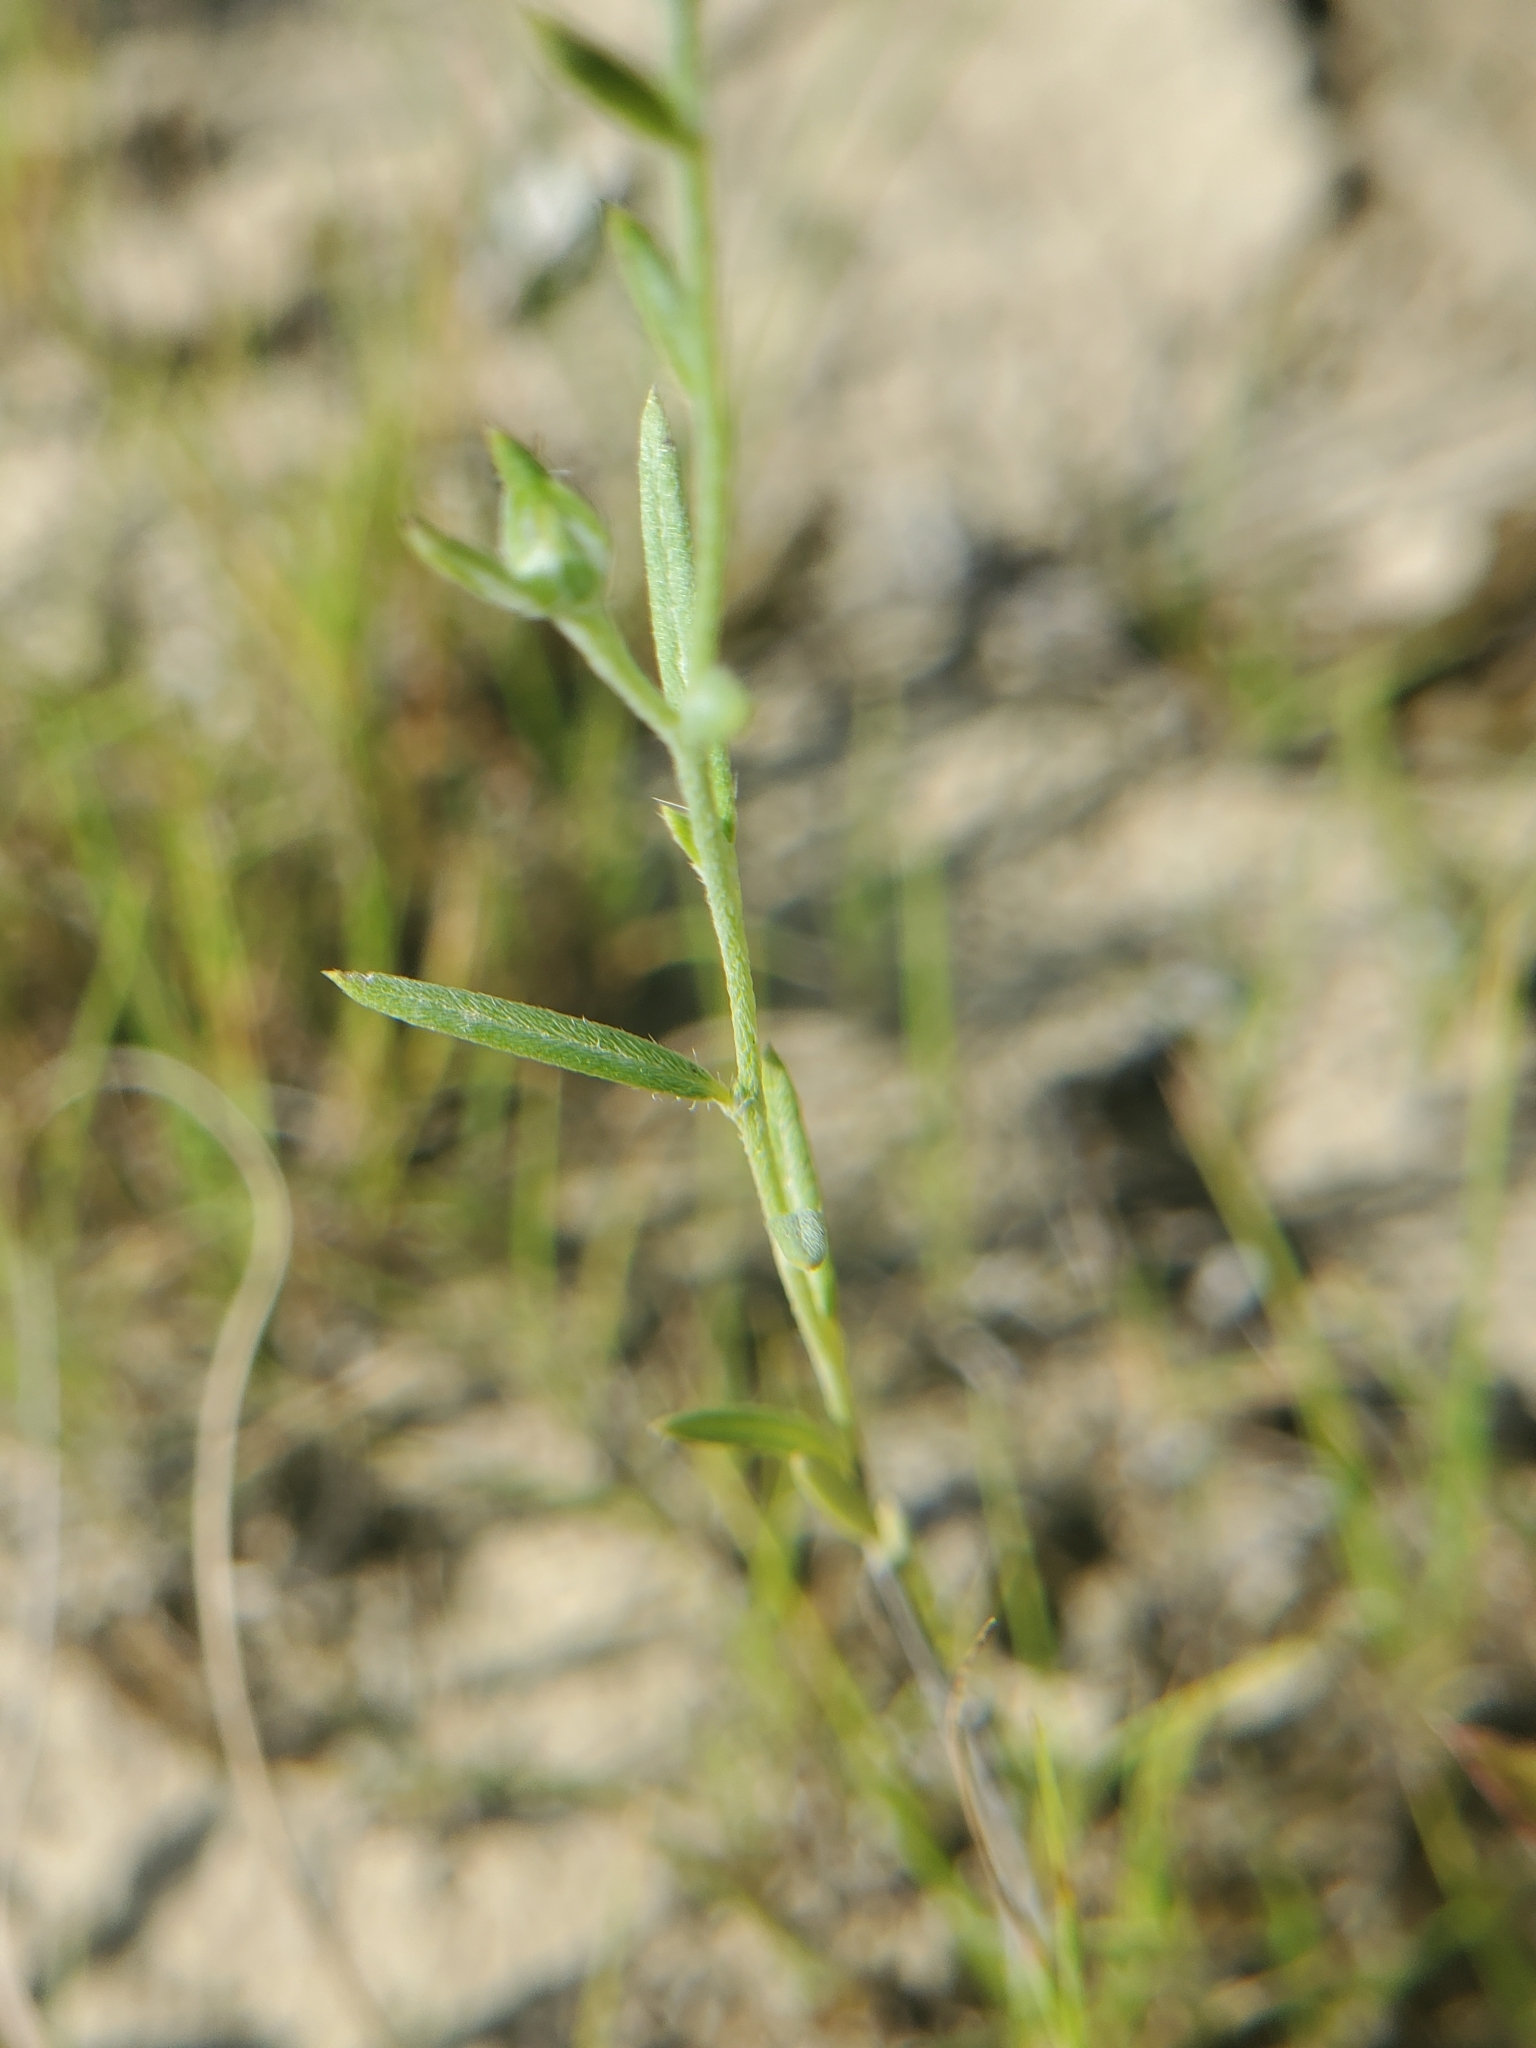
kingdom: Plantae
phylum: Tracheophyta
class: Magnoliopsida
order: Boraginales
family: Heliotropiaceae
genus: Euploca
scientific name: Euploca tenella
